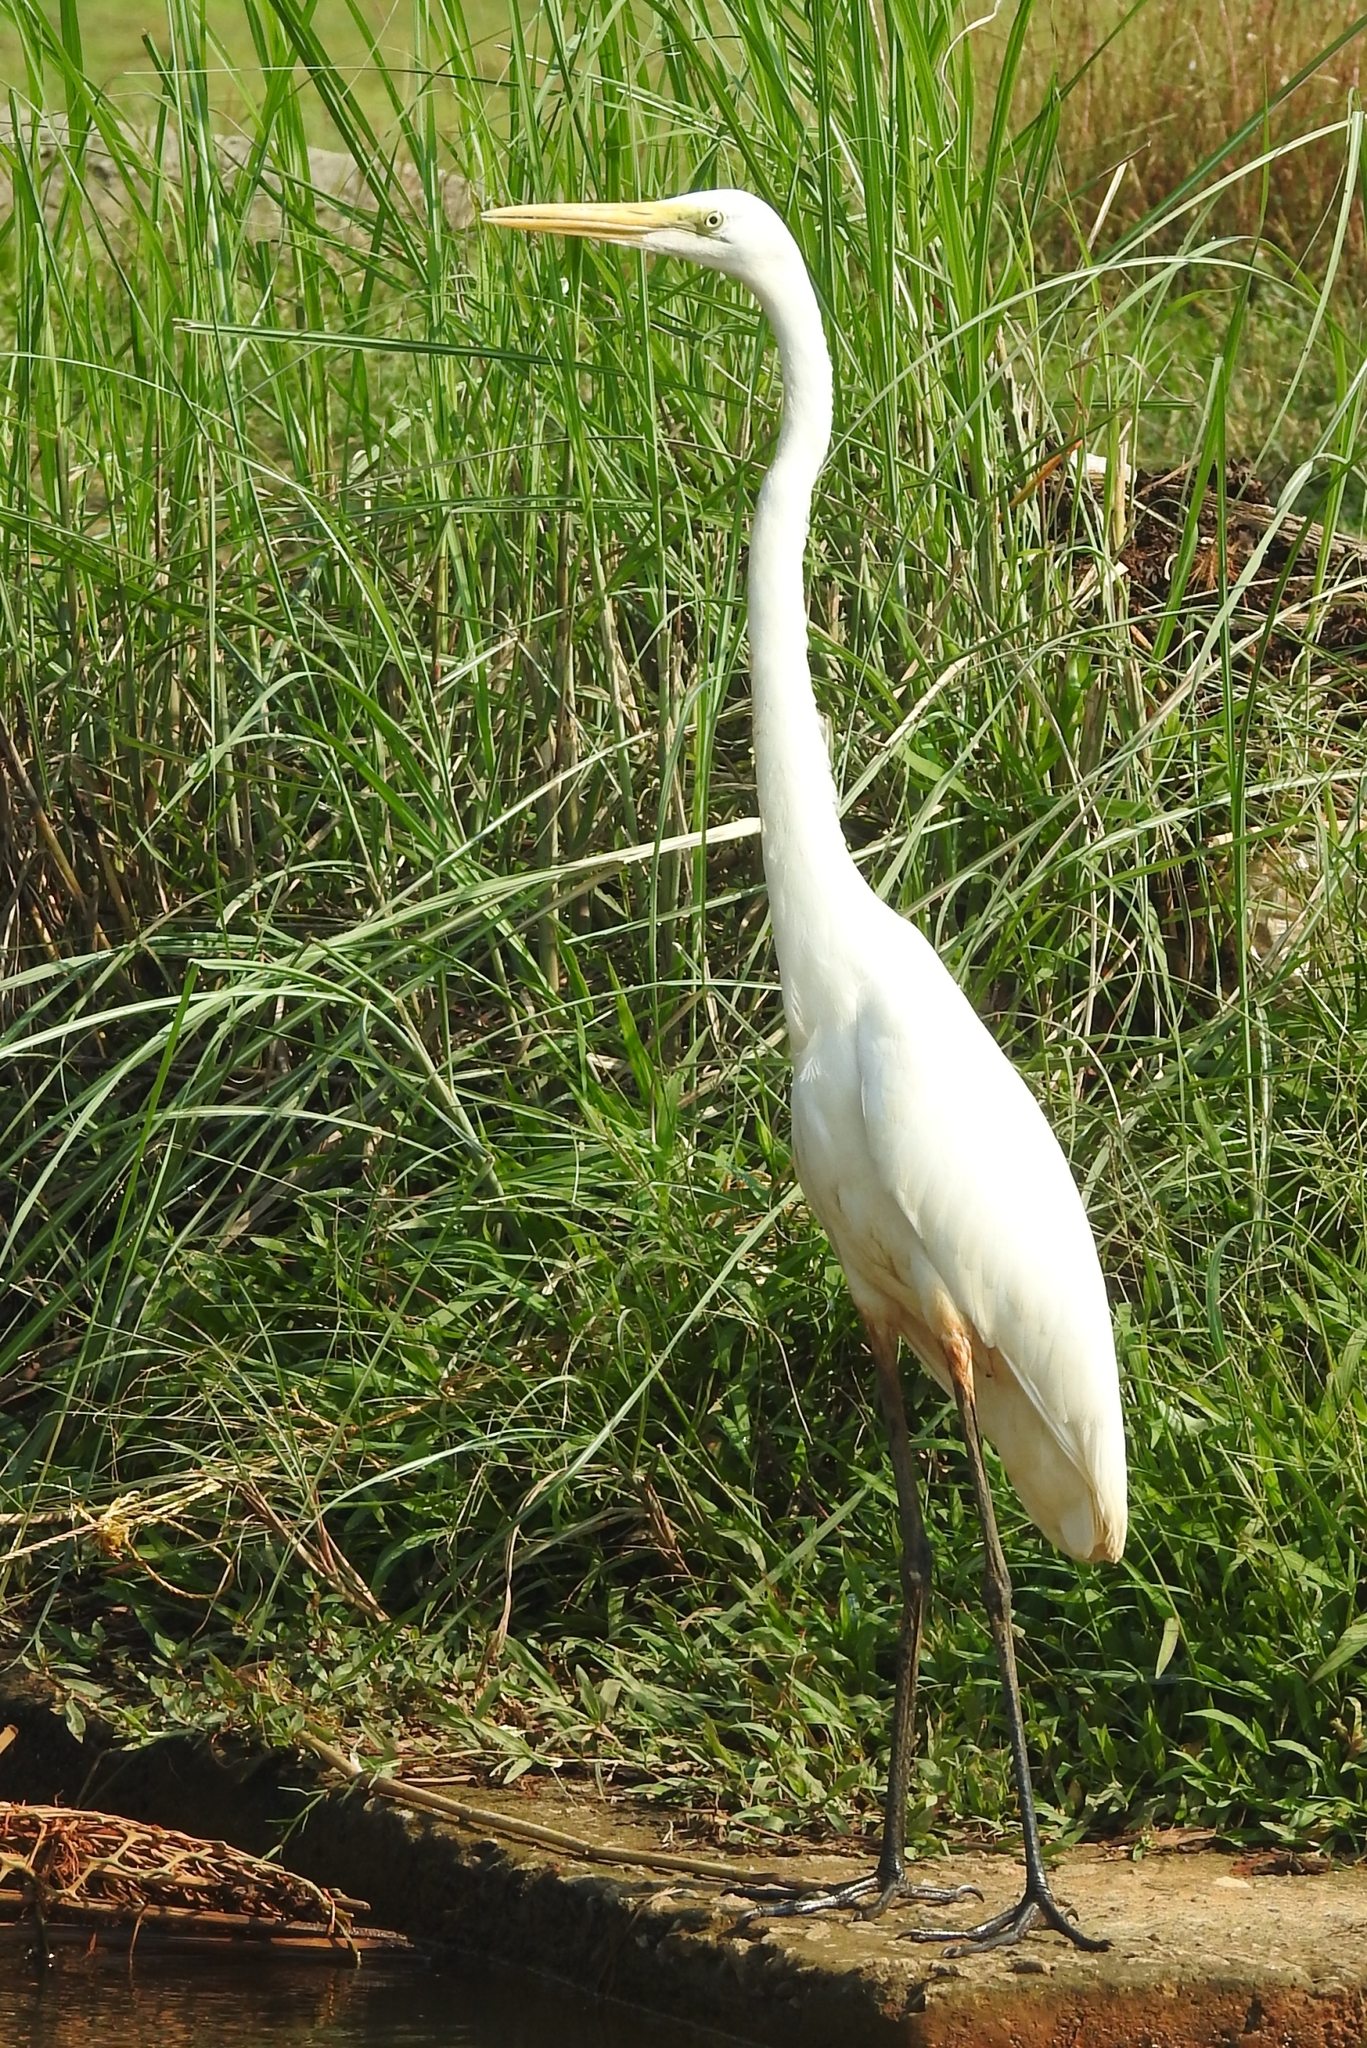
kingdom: Animalia
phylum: Chordata
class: Aves
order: Pelecaniformes
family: Ardeidae
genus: Ardea
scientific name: Ardea alba
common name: Great egret
